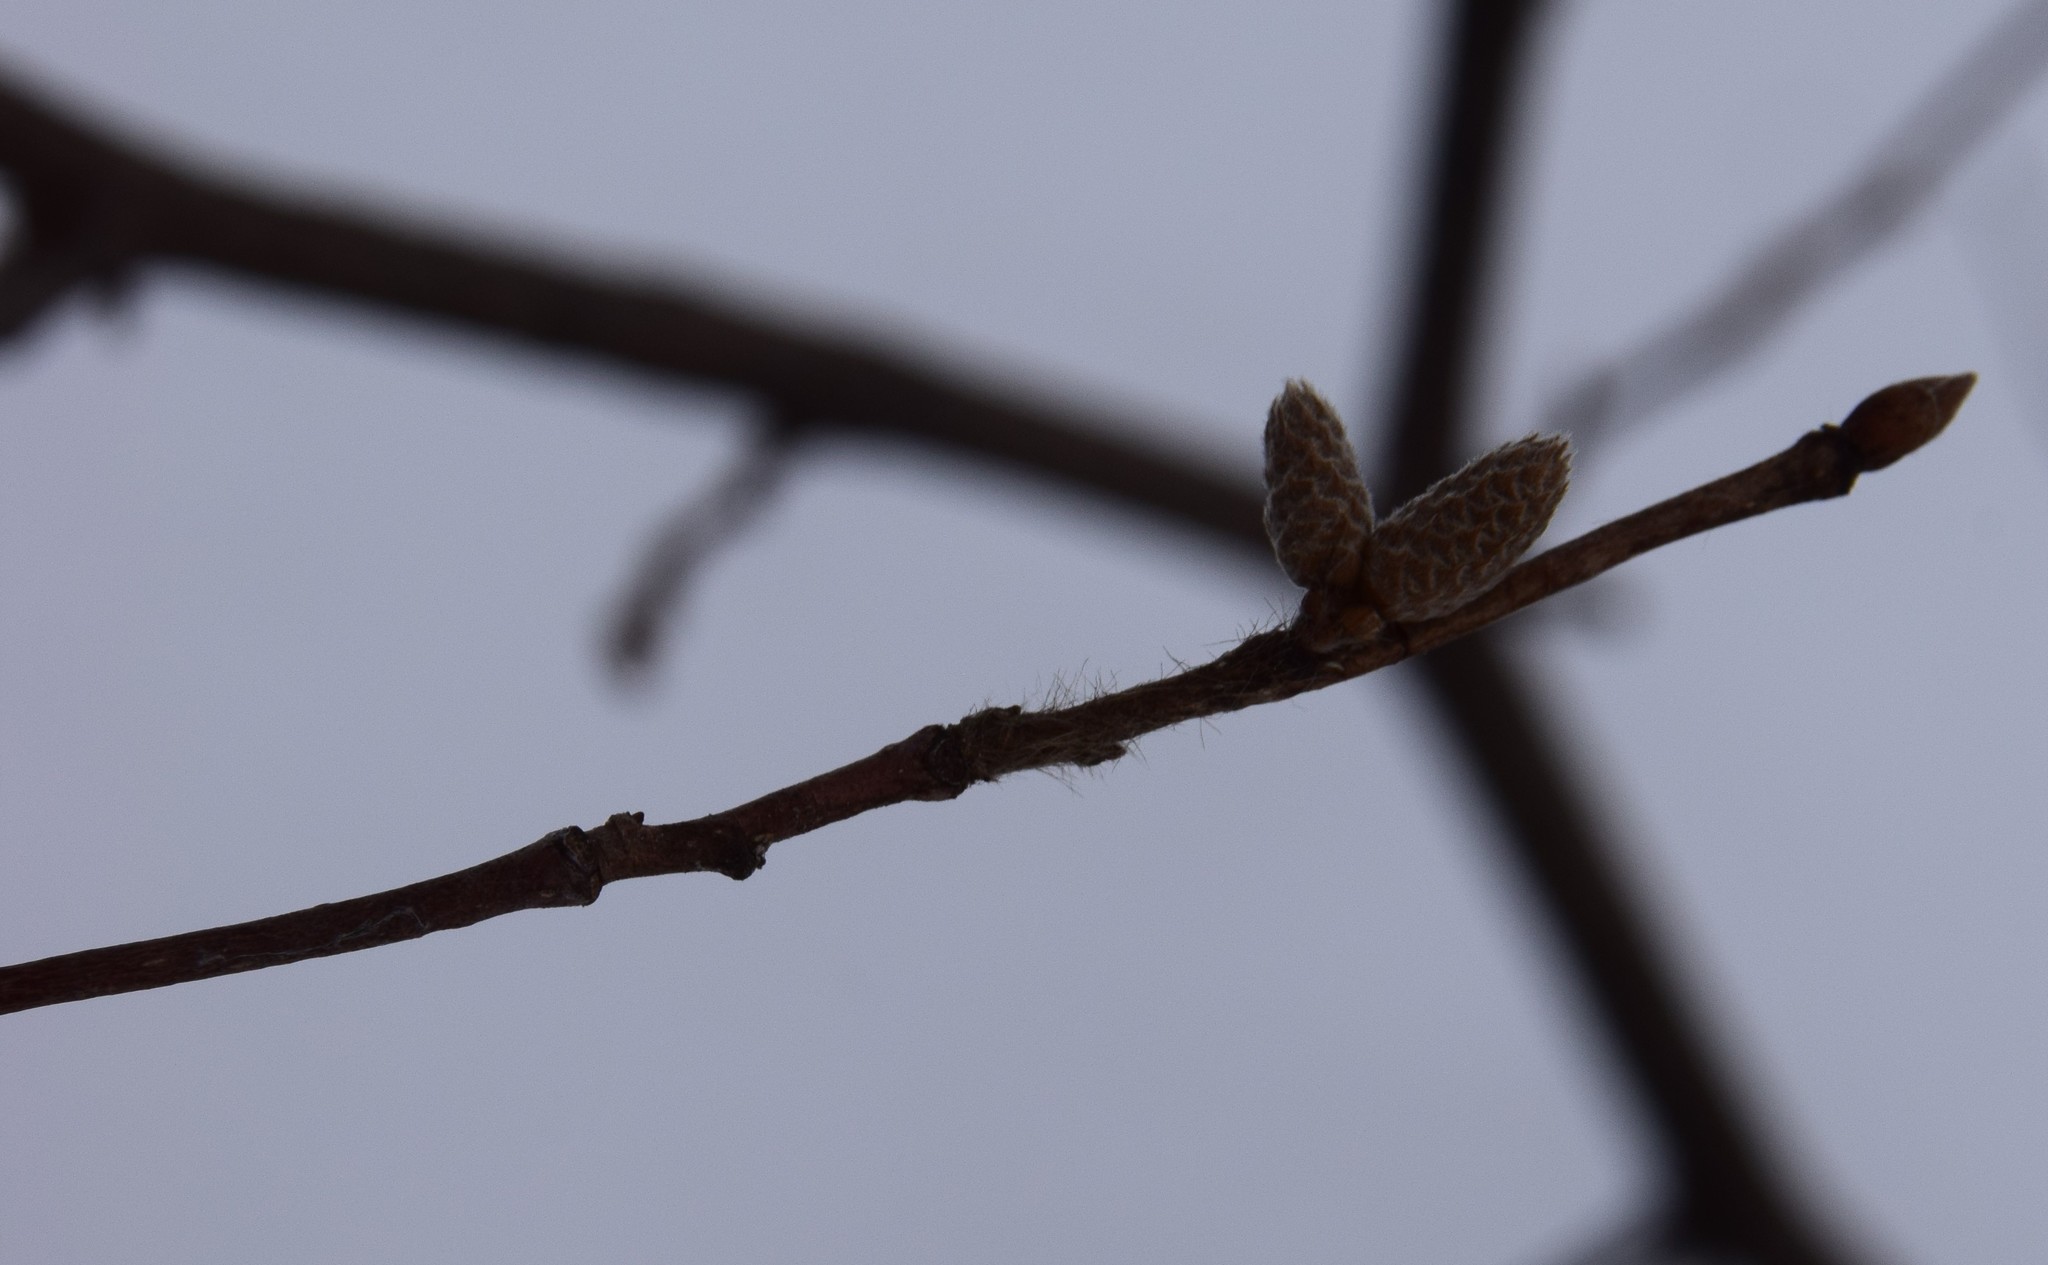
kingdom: Plantae
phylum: Tracheophyta
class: Magnoliopsida
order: Fagales
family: Betulaceae
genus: Corylus
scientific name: Corylus cornuta
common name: Beaked hazel
